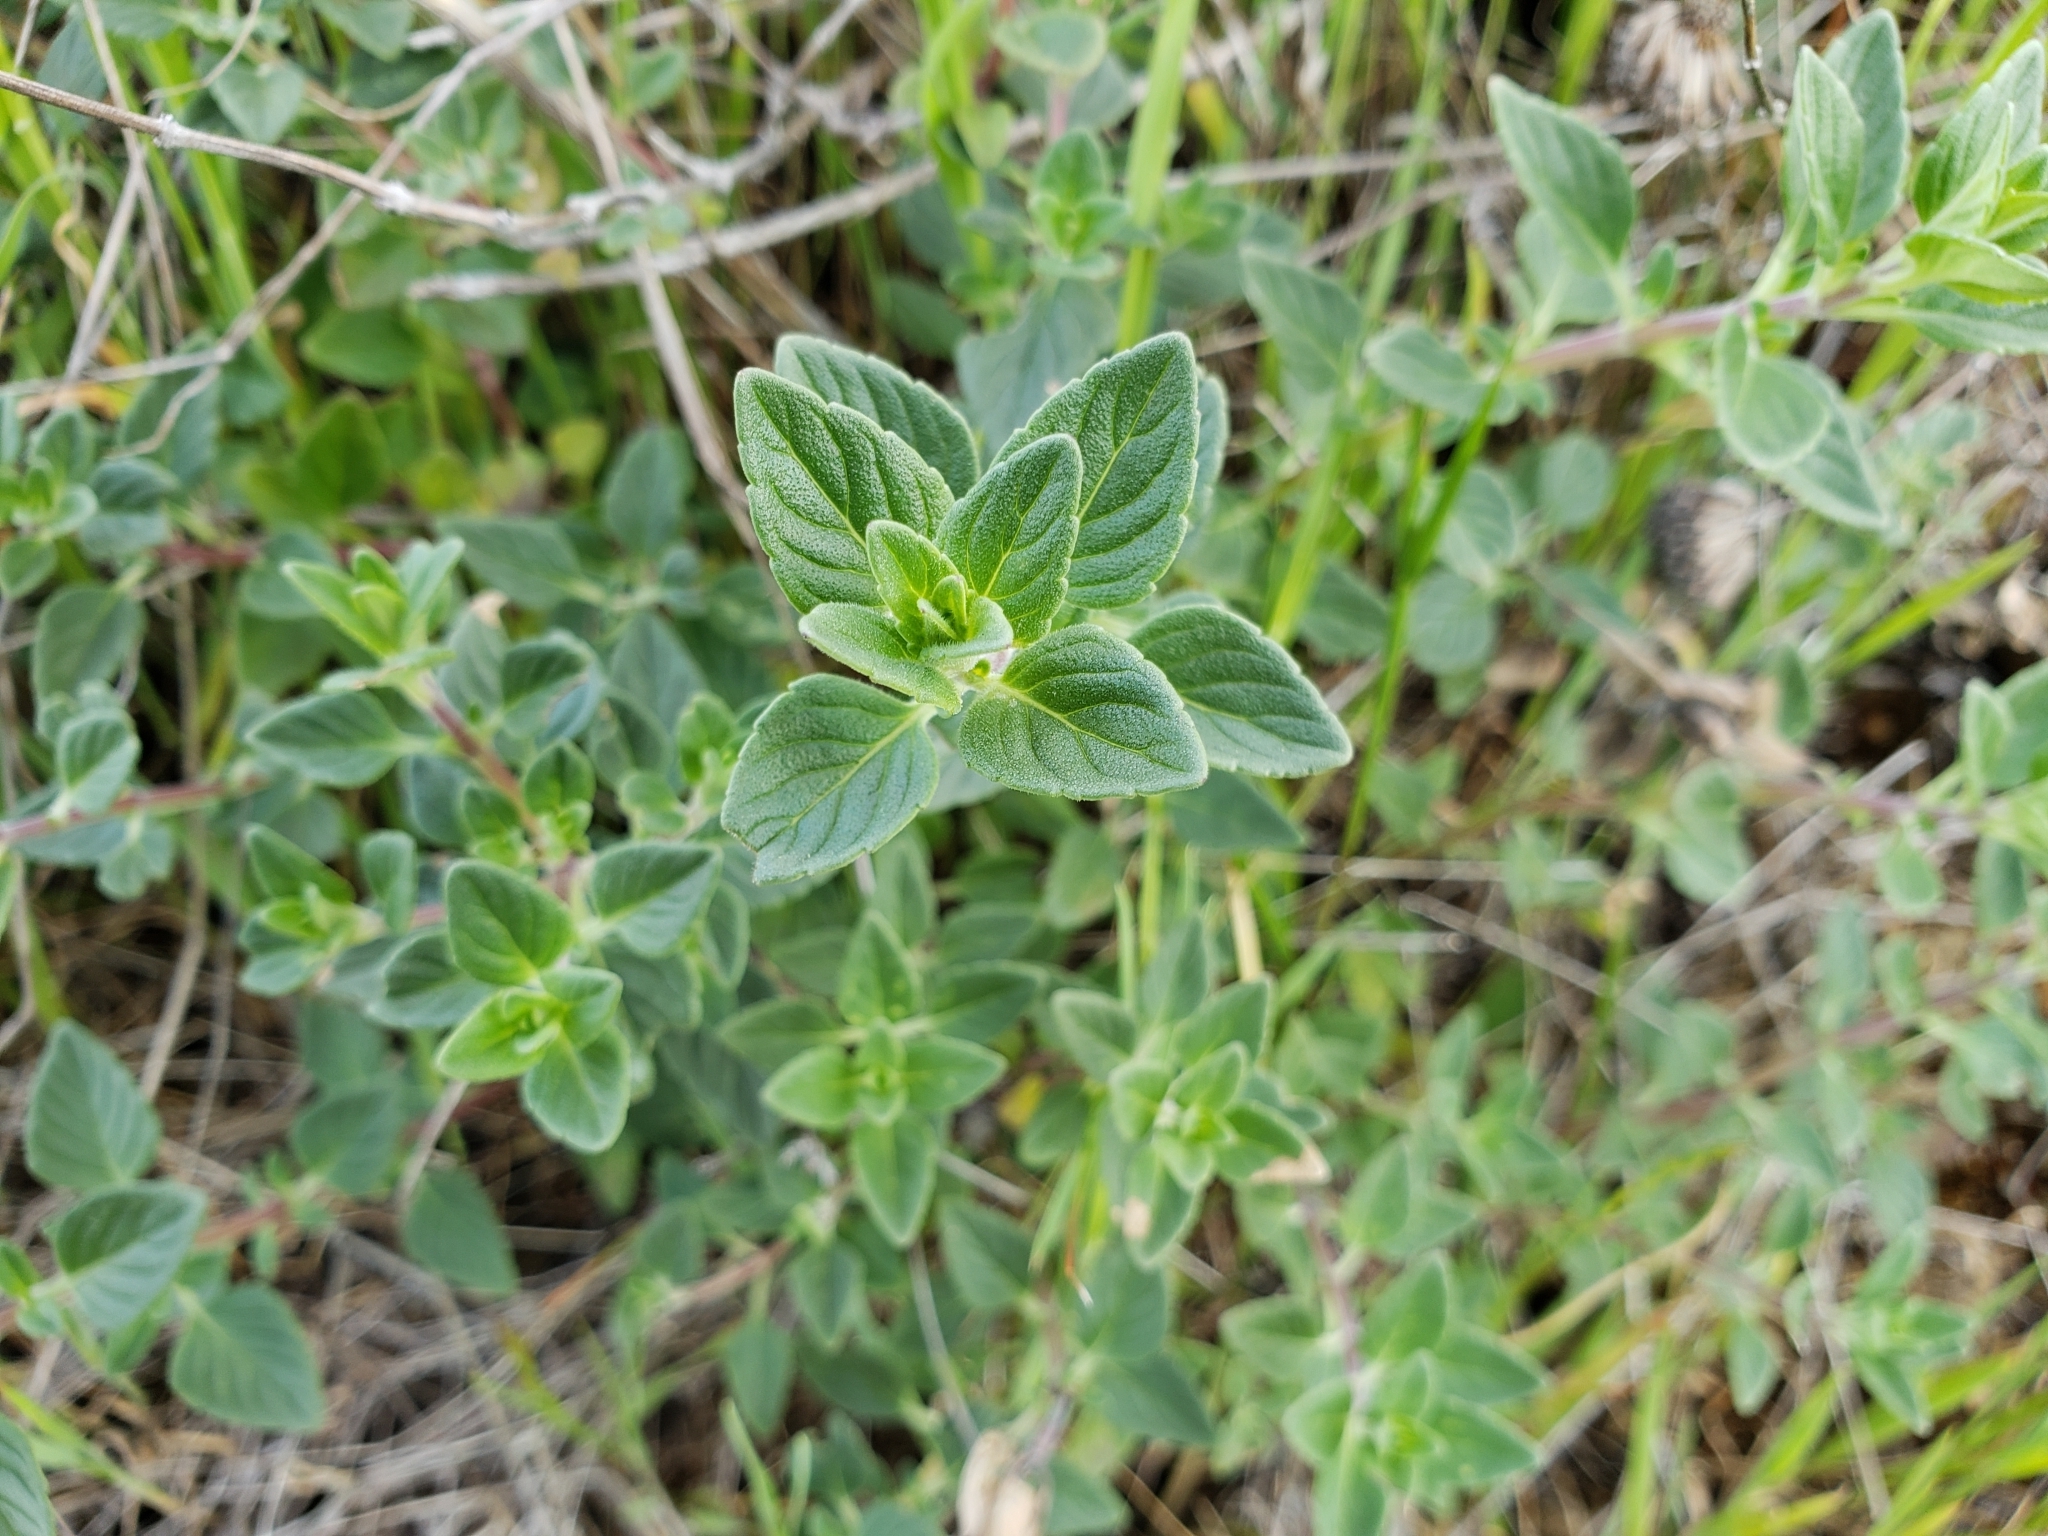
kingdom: Plantae
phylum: Tracheophyta
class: Magnoliopsida
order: Lamiales
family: Lamiaceae
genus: Monardella
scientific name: Monardella odoratissima
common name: Pacific monardella
